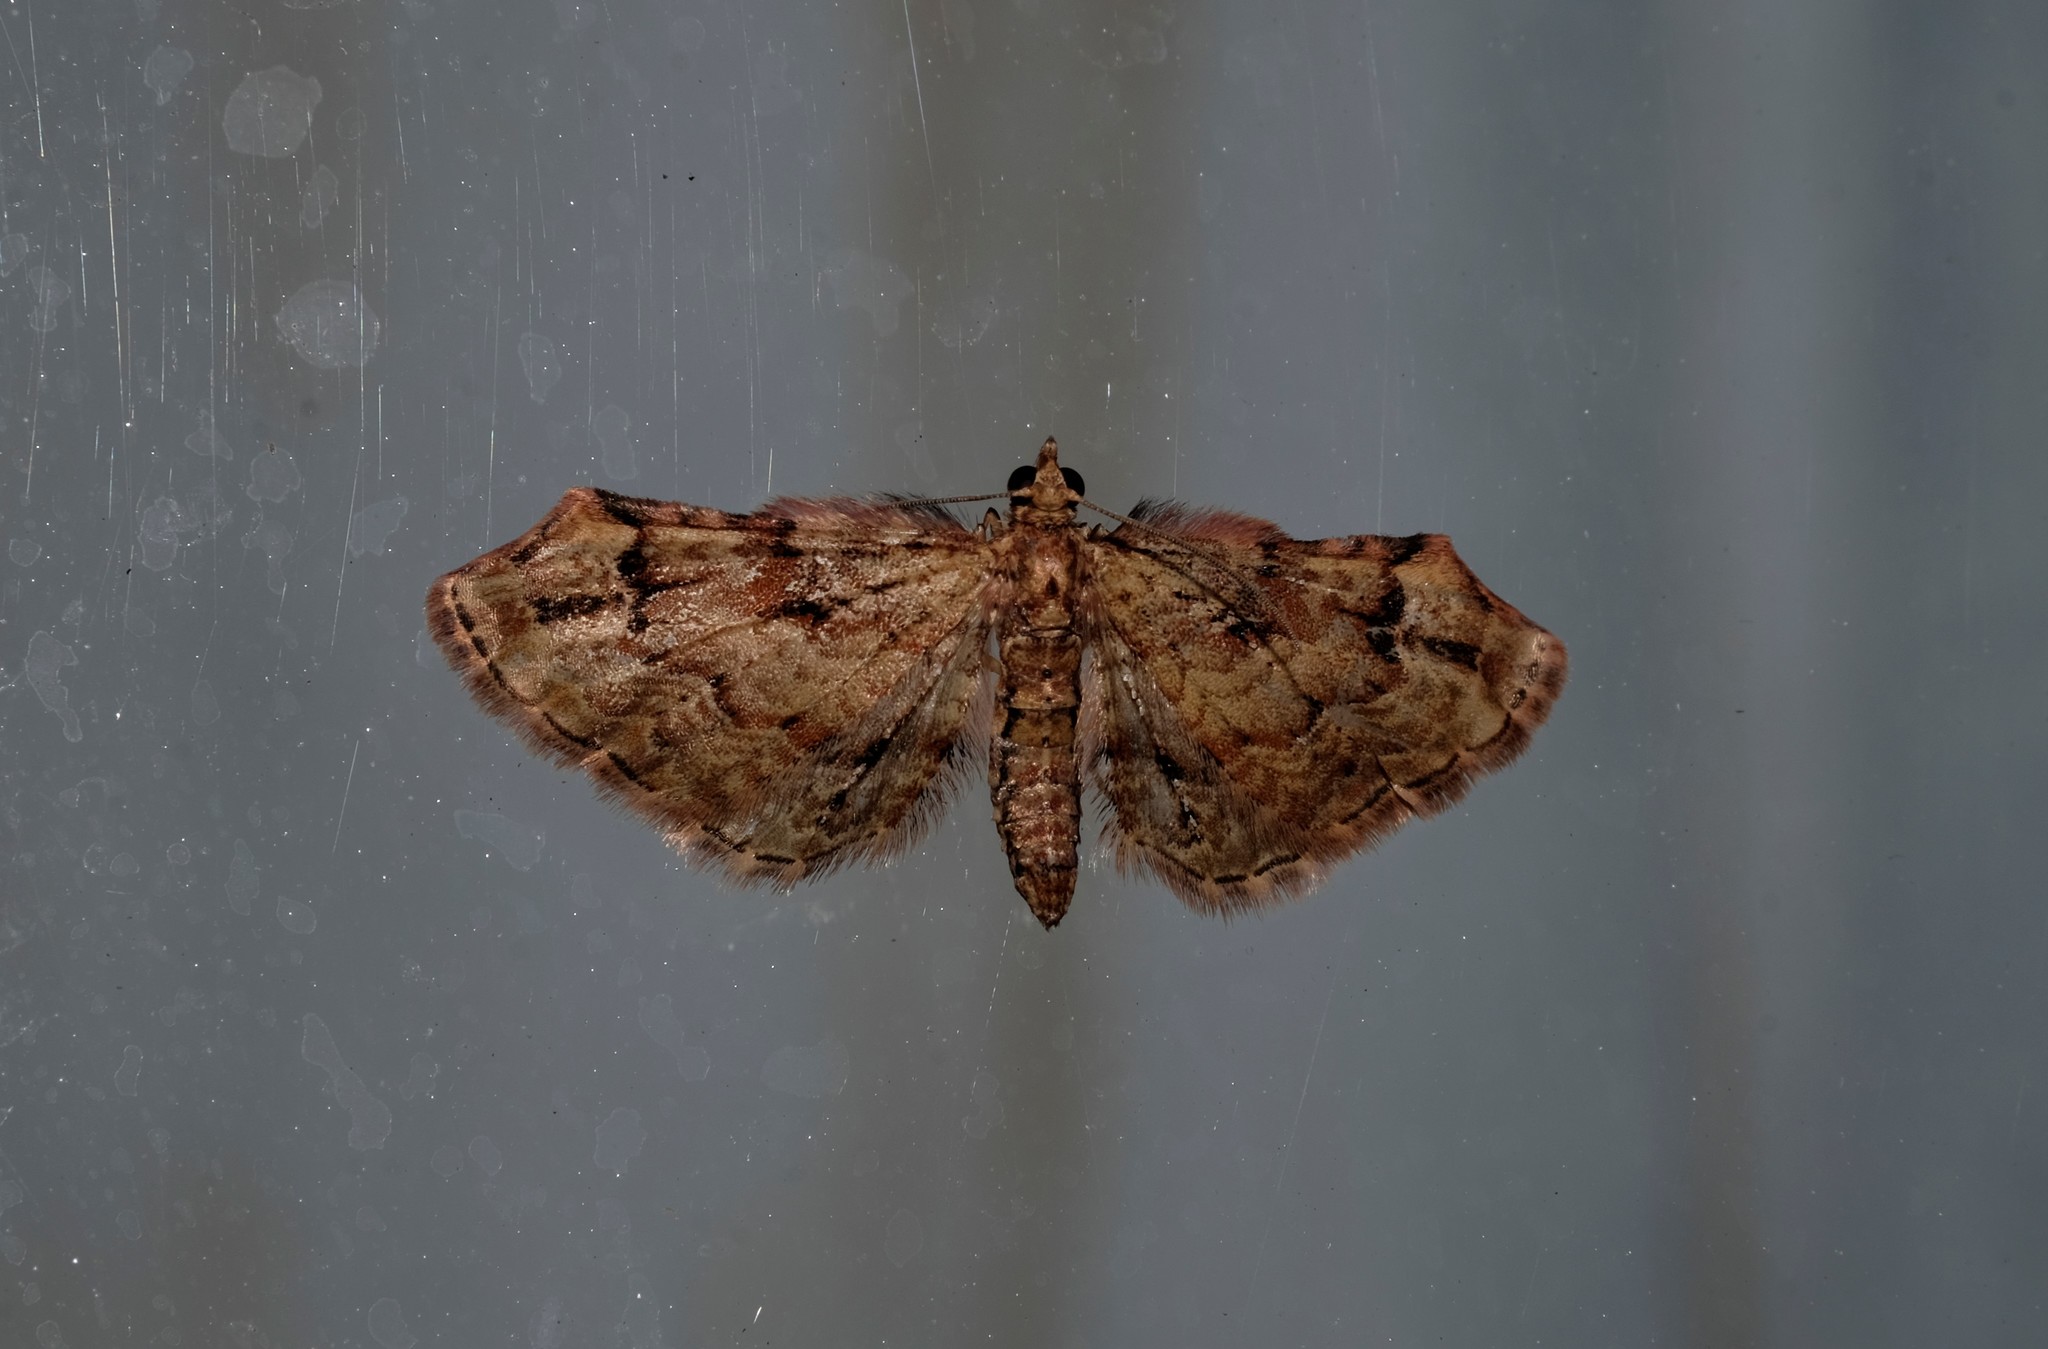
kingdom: Animalia
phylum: Arthropoda
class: Insecta
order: Lepidoptera
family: Geometridae
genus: Chloroclystis
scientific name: Chloroclystis approximata
